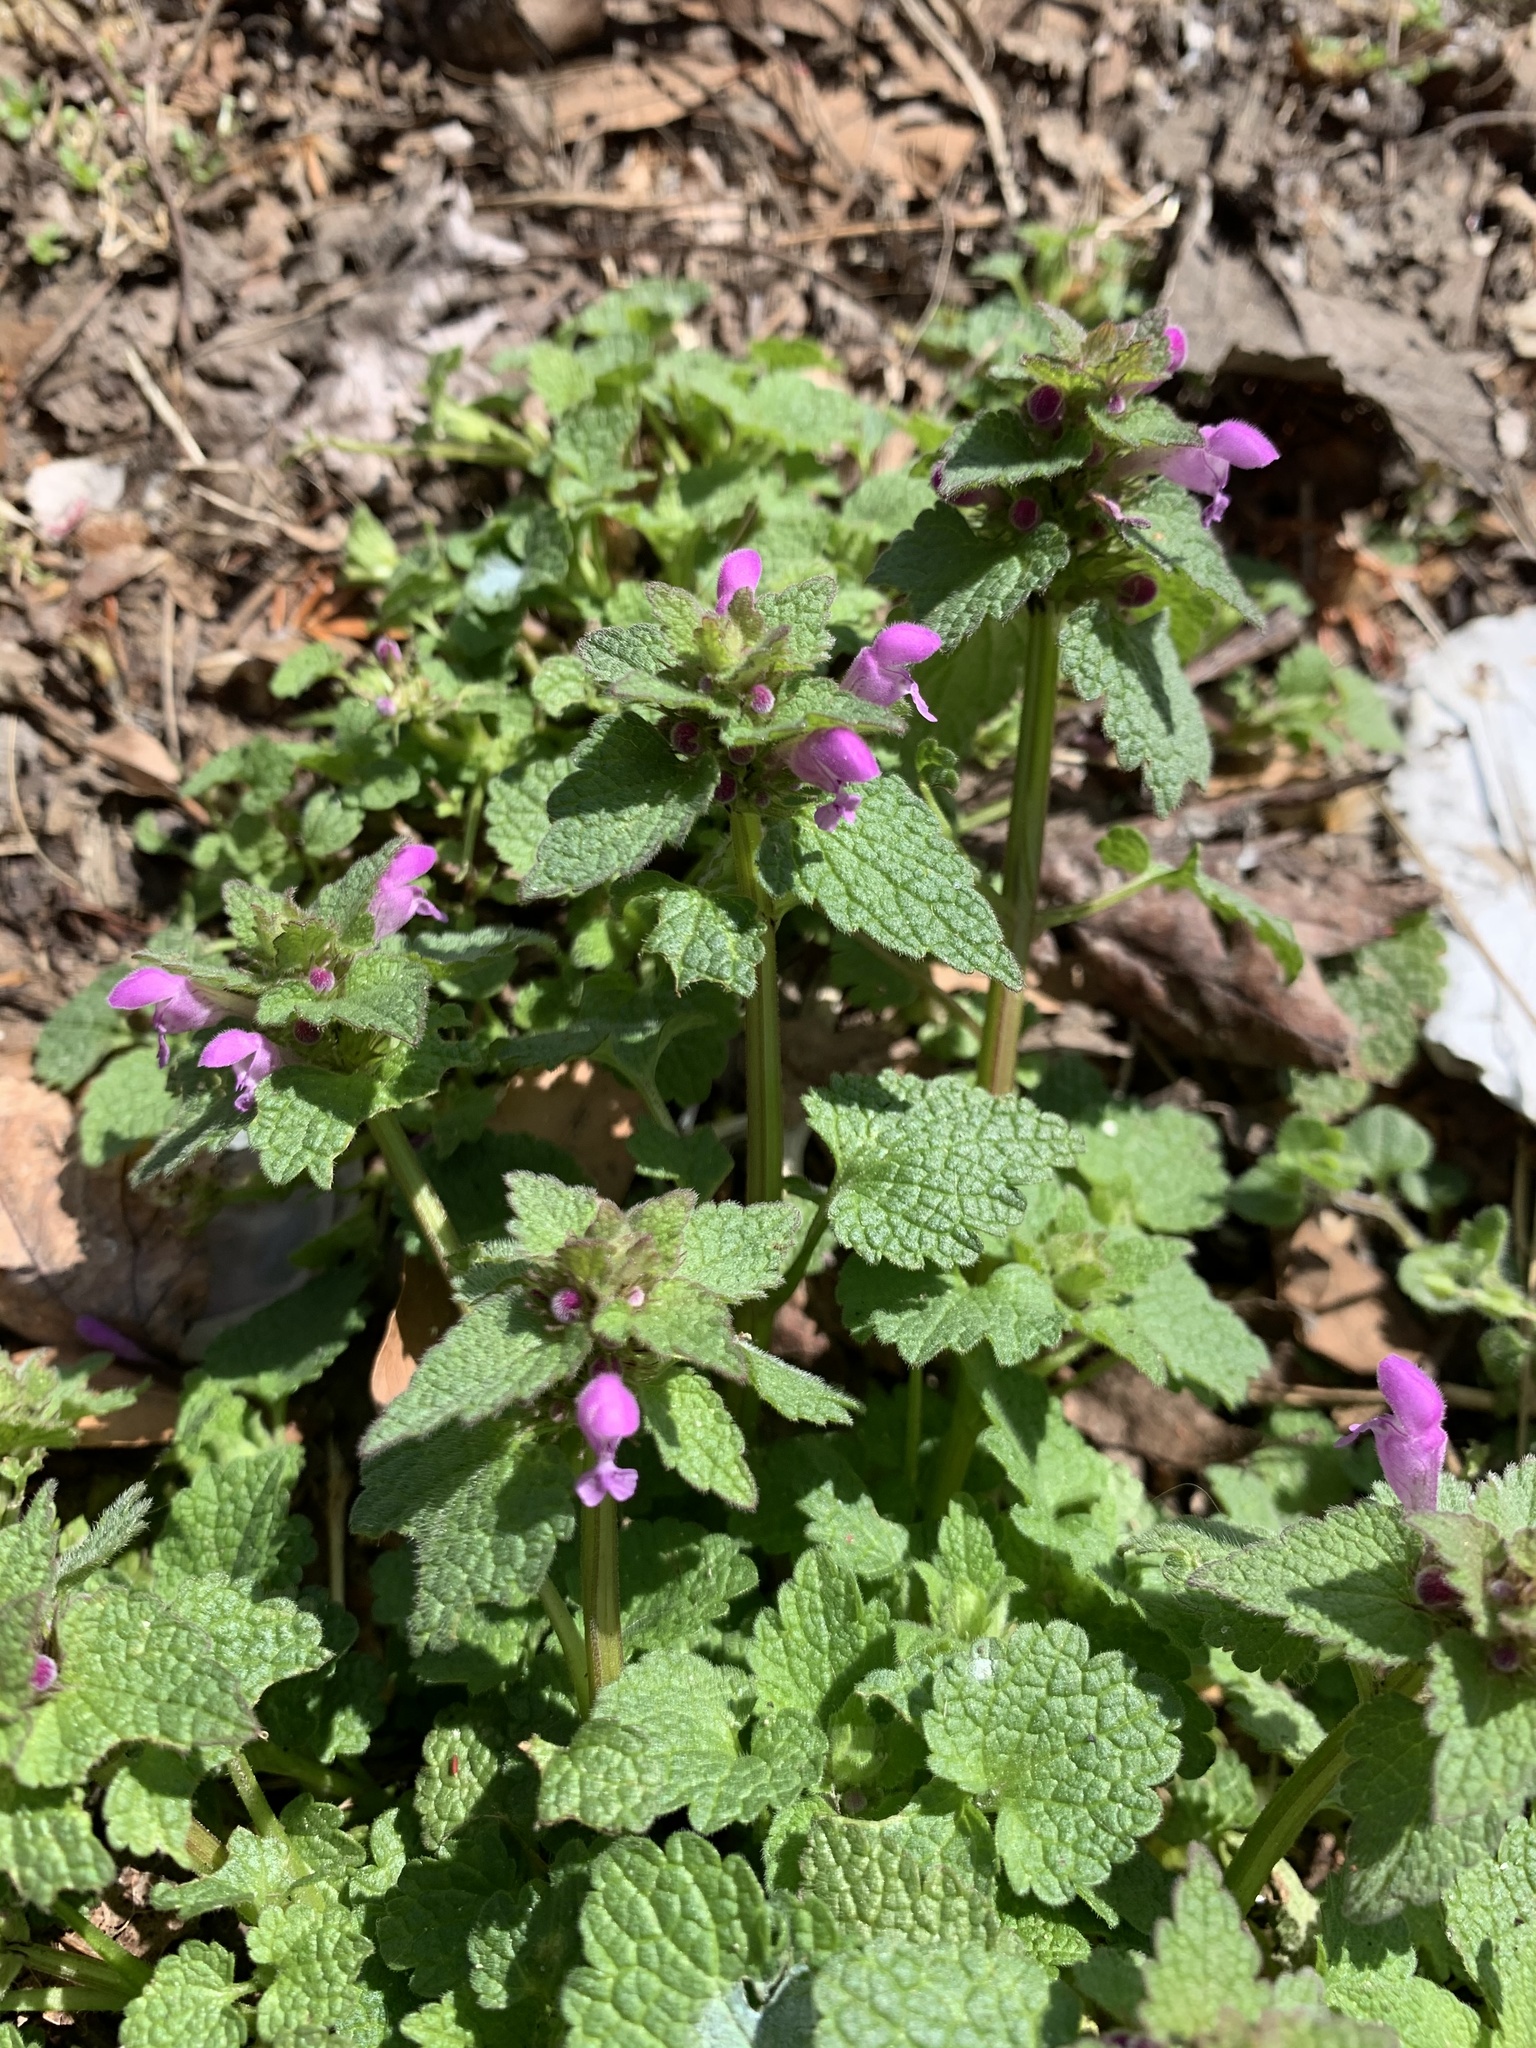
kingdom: Plantae
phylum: Tracheophyta
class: Magnoliopsida
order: Lamiales
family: Lamiaceae
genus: Lamium
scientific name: Lamium purpureum
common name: Red dead-nettle
